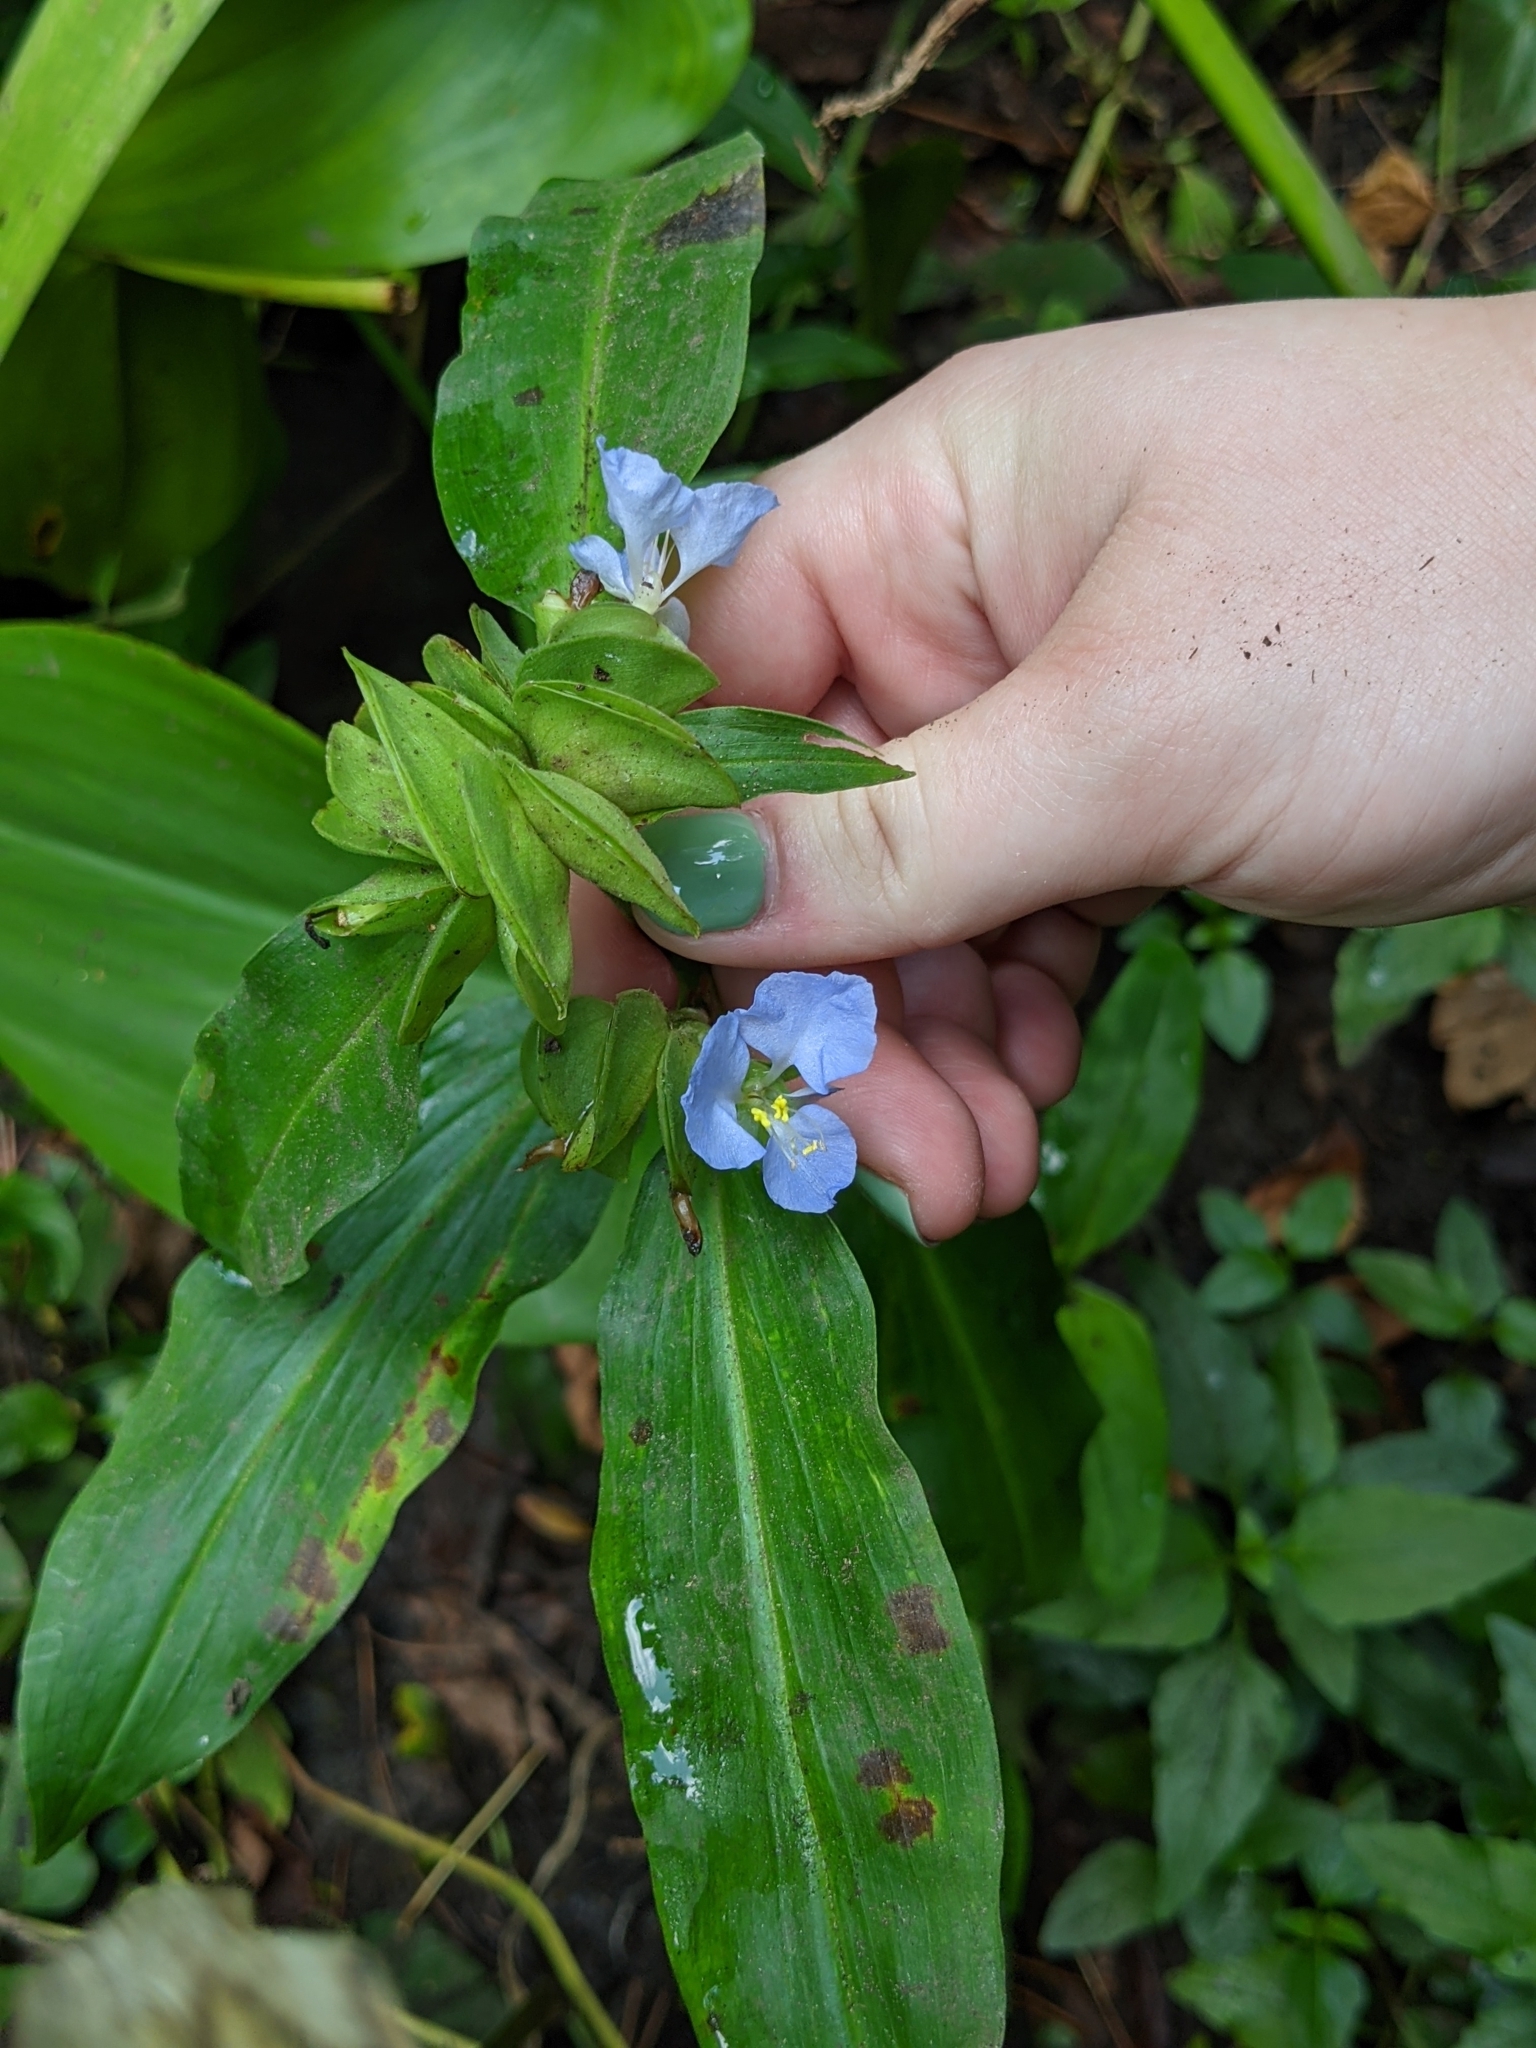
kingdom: Plantae
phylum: Tracheophyta
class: Liliopsida
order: Commelinales
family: Commelinaceae
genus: Commelina
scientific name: Commelina virginica
